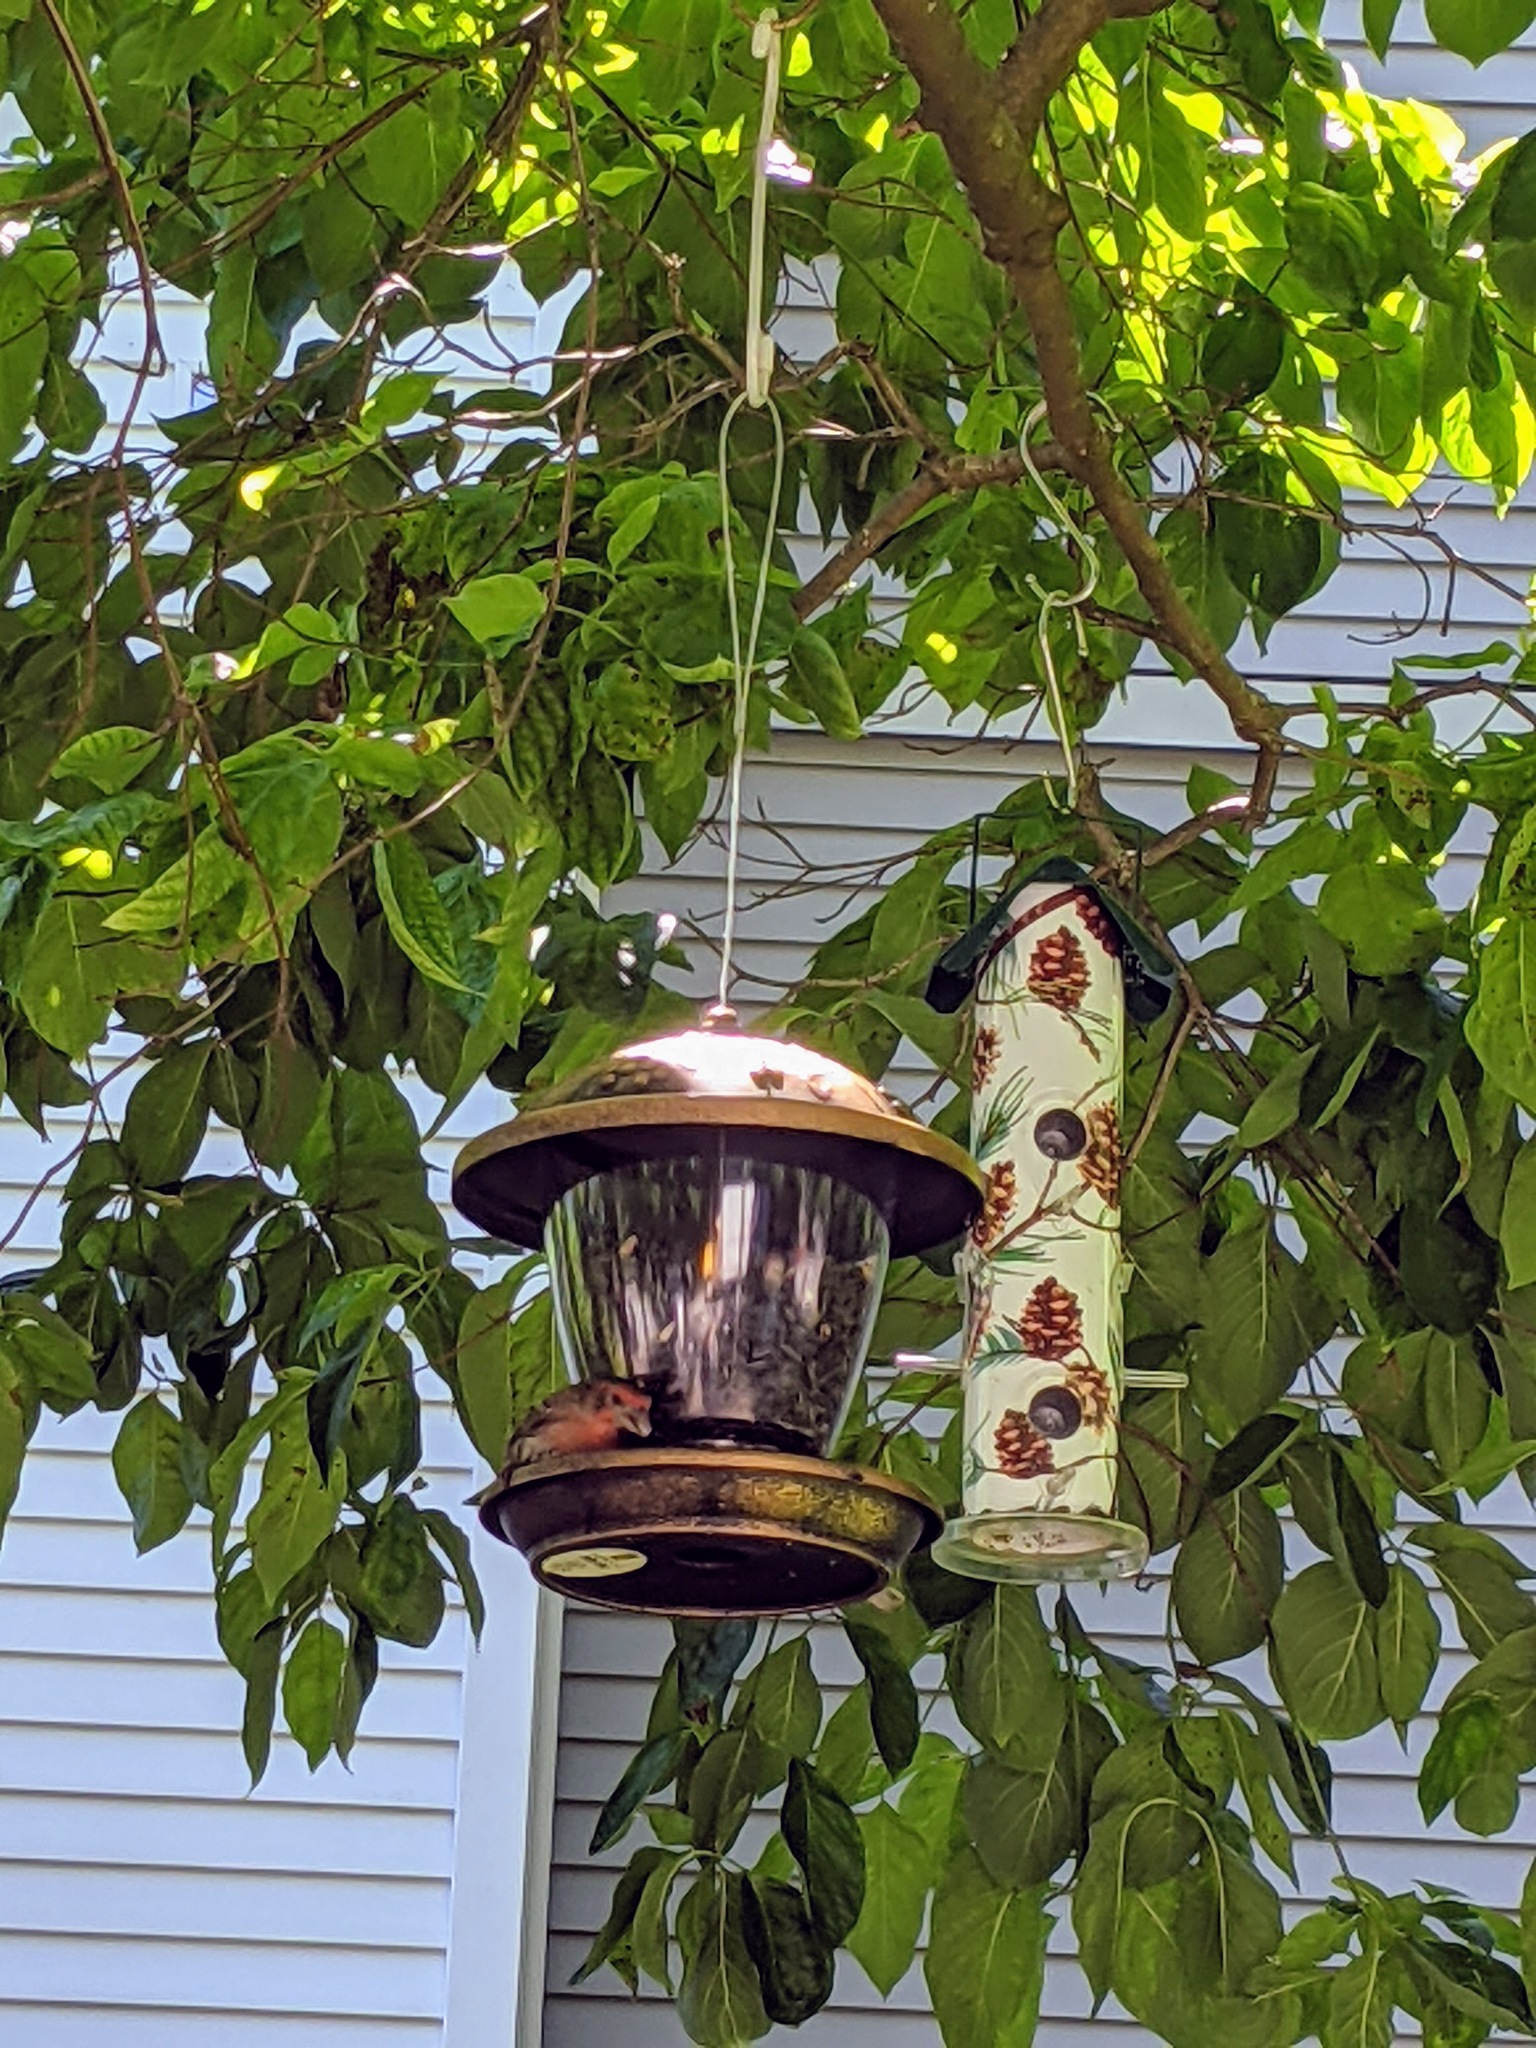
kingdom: Animalia
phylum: Chordata
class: Aves
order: Passeriformes
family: Fringillidae
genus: Haemorhous
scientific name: Haemorhous purpureus
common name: Purple finch
